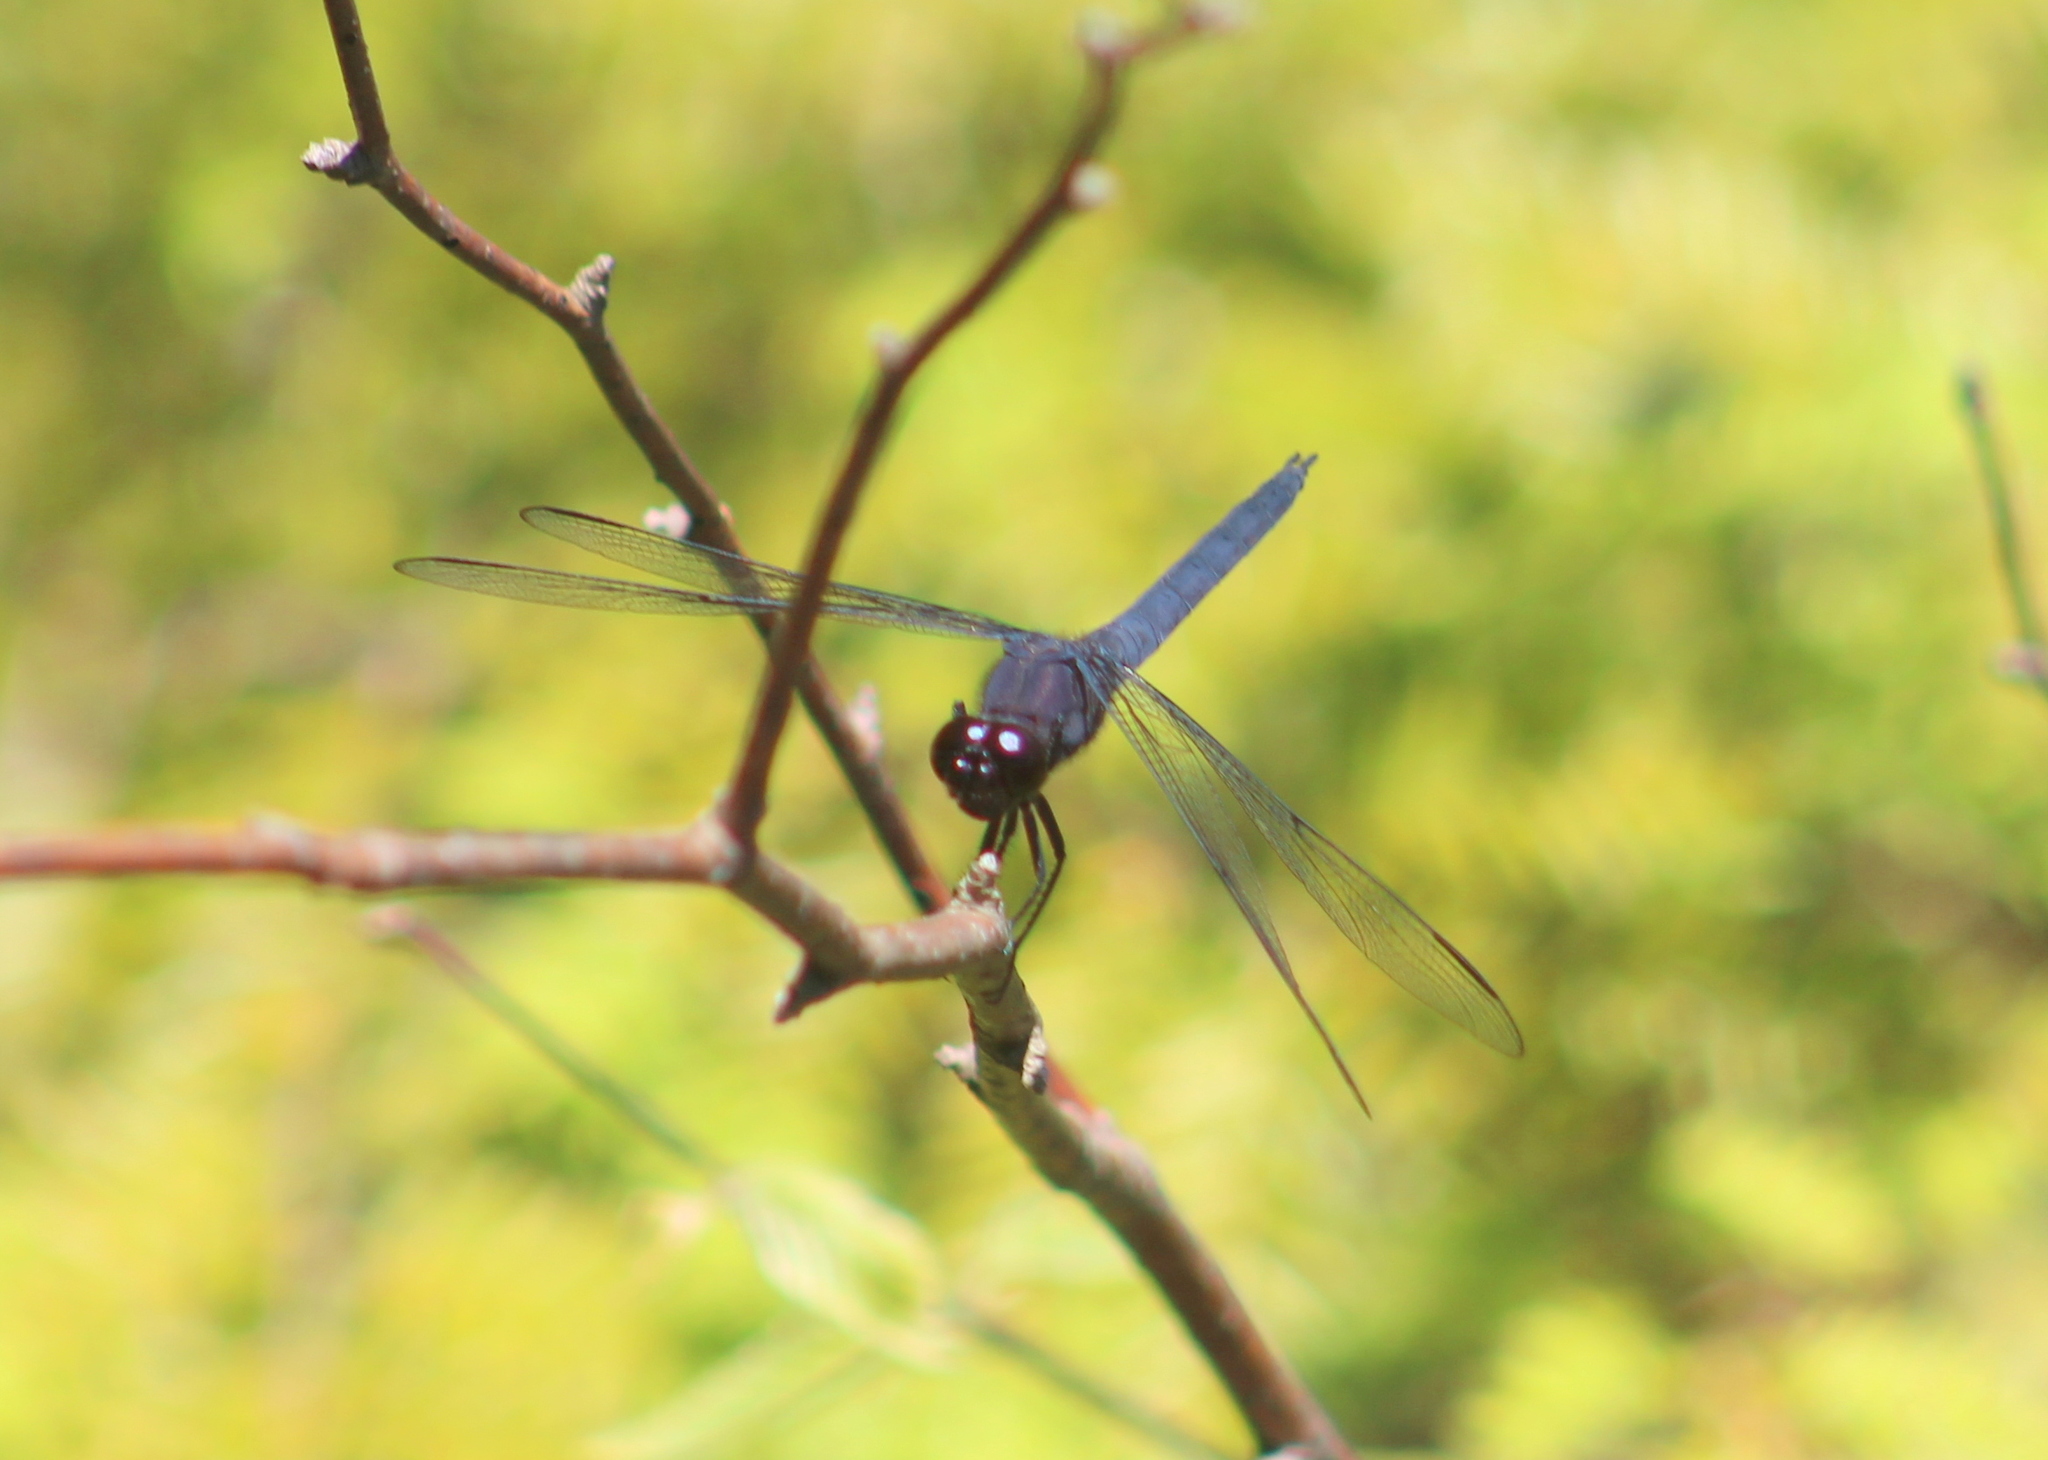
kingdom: Animalia
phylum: Arthropoda
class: Insecta
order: Odonata
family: Libellulidae
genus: Libellula
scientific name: Libellula incesta
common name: Slaty skimmer
